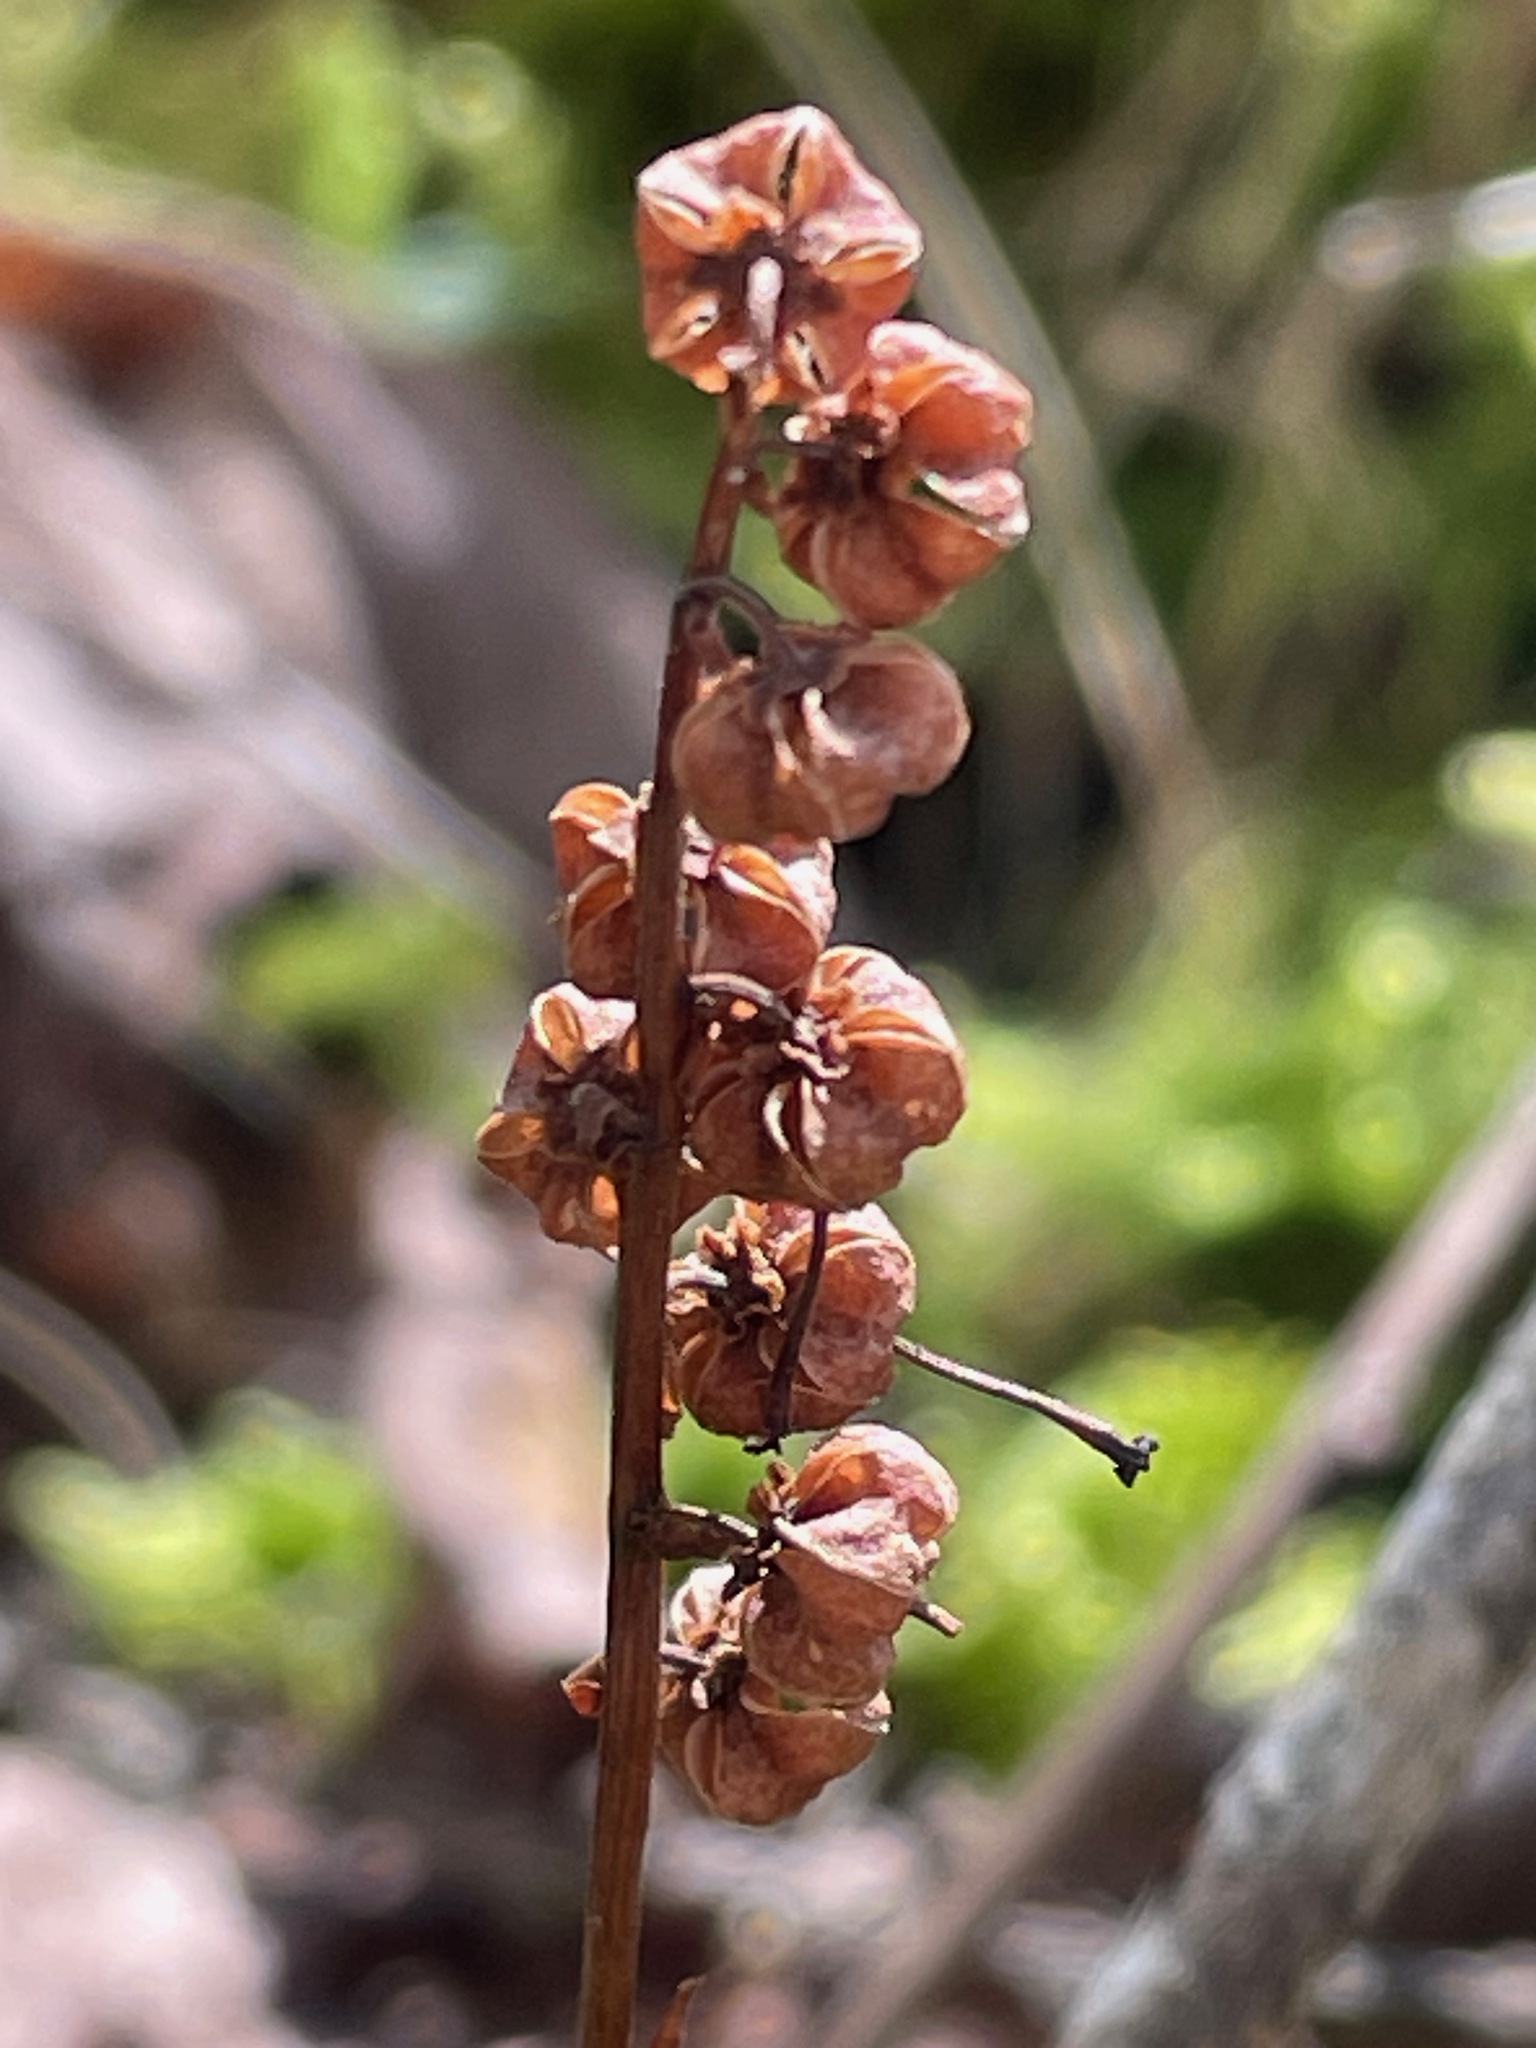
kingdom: Plantae
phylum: Tracheophyta
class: Magnoliopsida
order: Ericales
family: Ericaceae
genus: Orthilia
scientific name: Orthilia secunda
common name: One-sided orthilia
